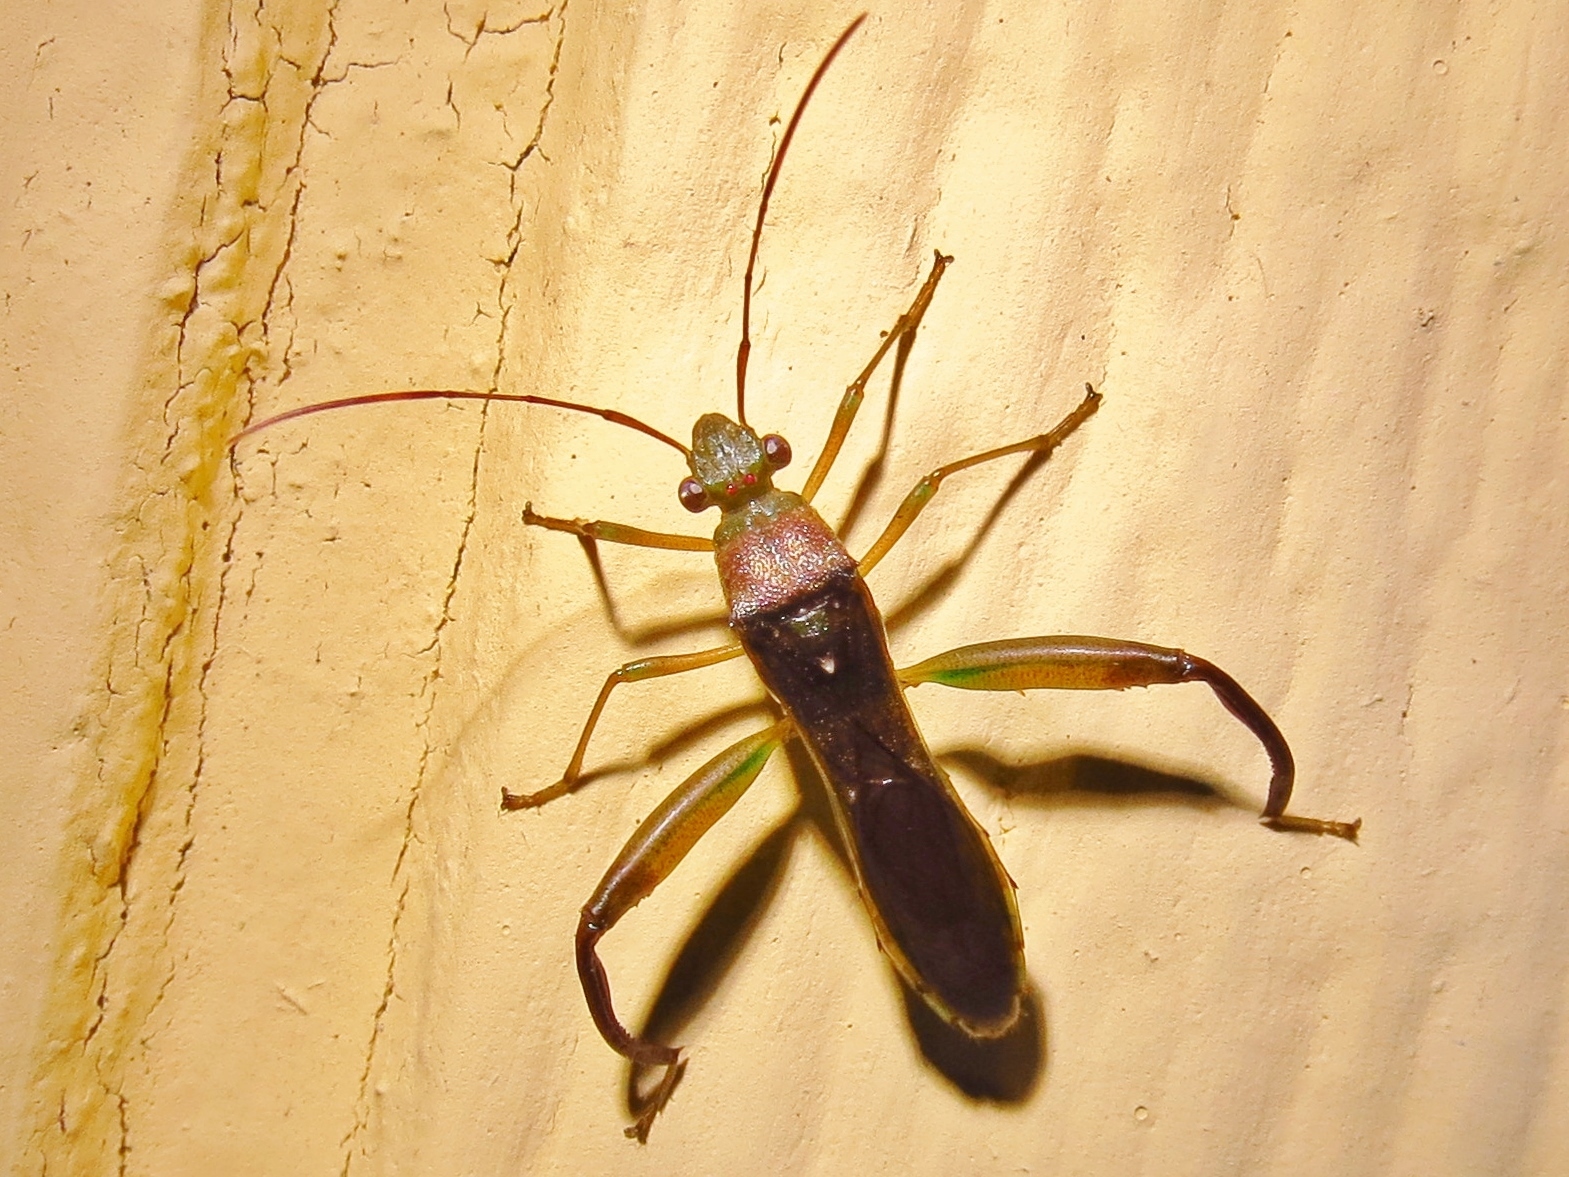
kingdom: Animalia
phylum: Arthropoda
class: Insecta
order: Hemiptera
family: Alydidae
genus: Hyalymenus
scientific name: Hyalymenus tarsatus
